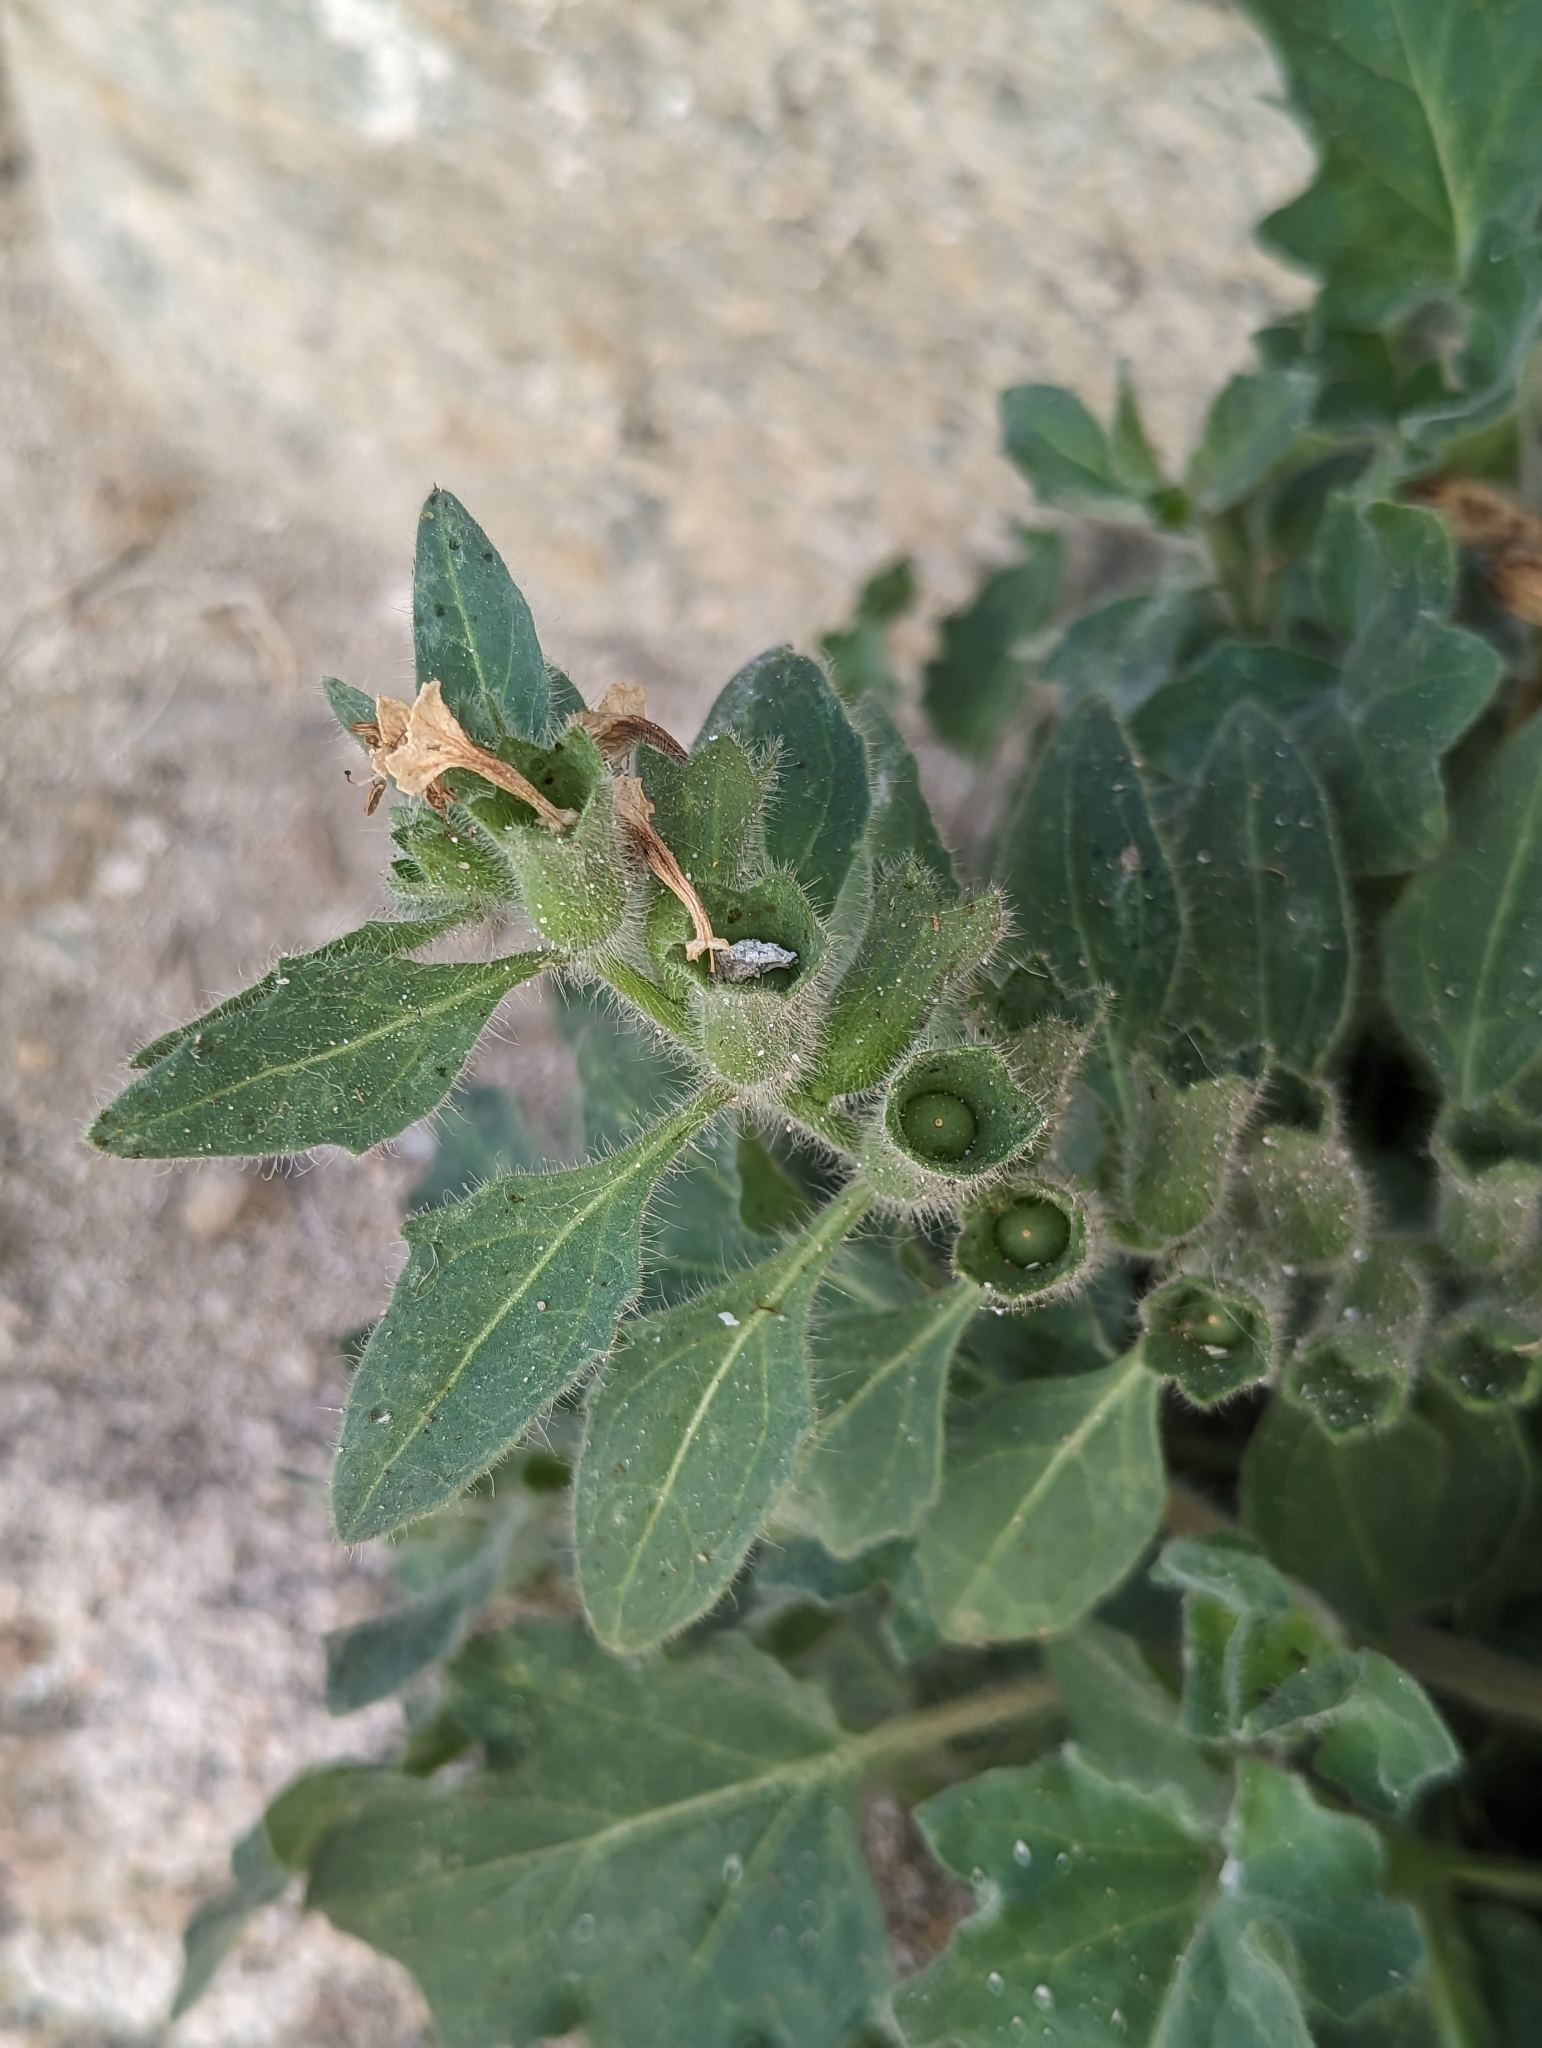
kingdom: Plantae
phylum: Tracheophyta
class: Magnoliopsida
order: Solanales
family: Solanaceae
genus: Hyoscyamus
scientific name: Hyoscyamus albus
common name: White henbane
